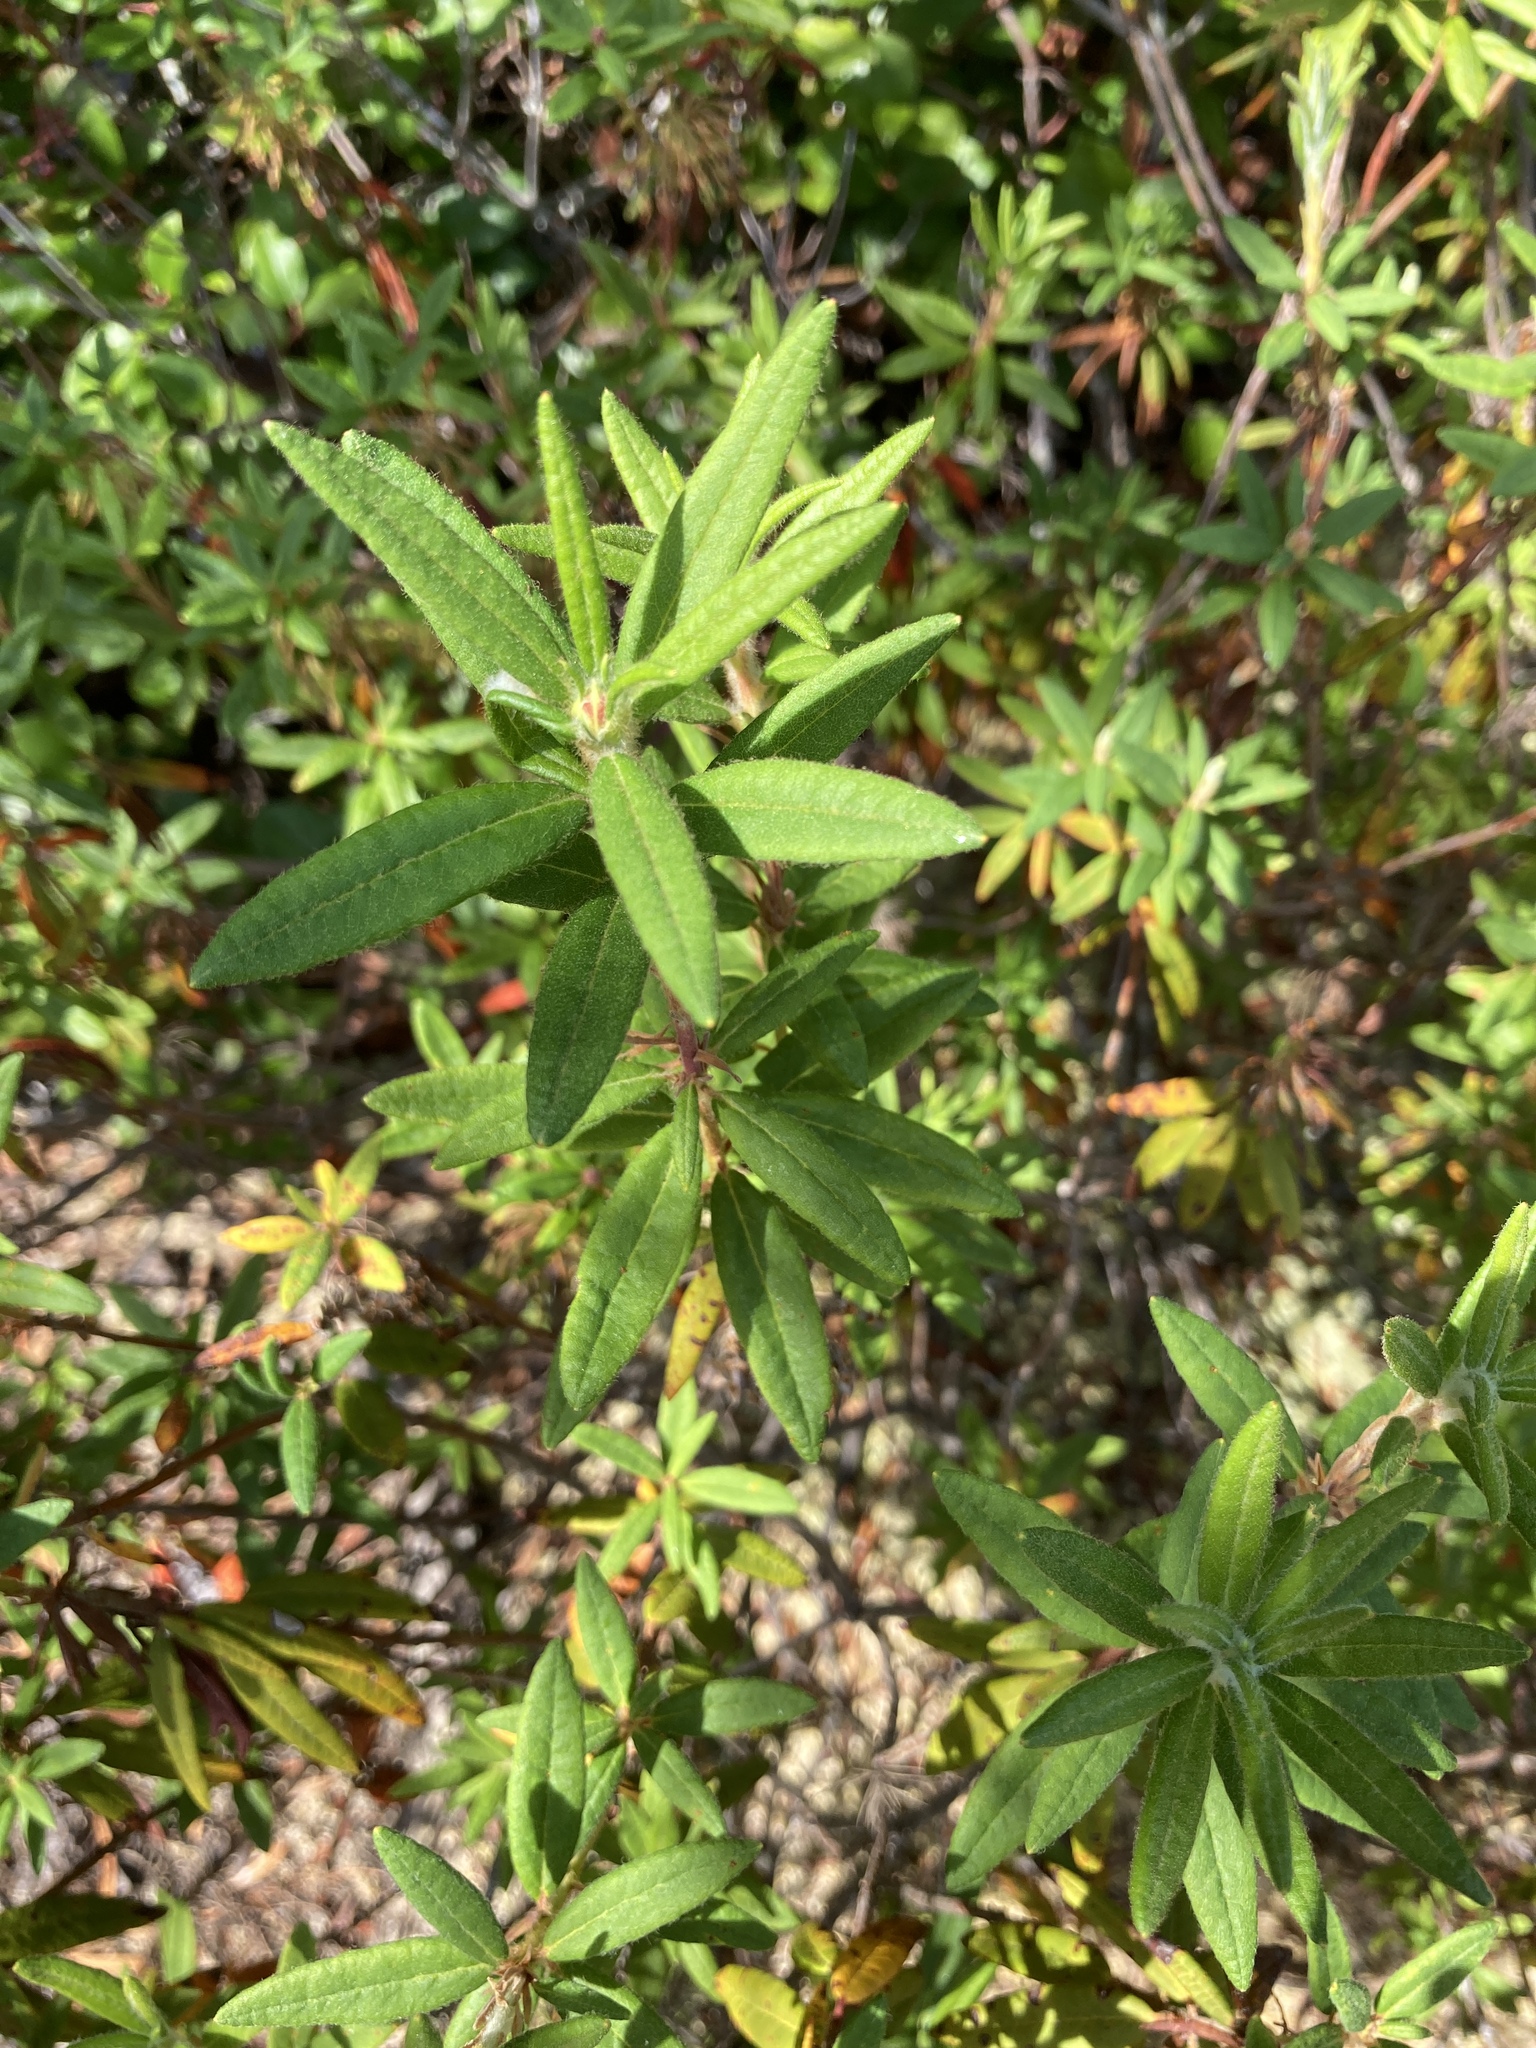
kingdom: Plantae
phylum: Tracheophyta
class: Magnoliopsida
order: Ericales
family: Ericaceae
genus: Rhododendron
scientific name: Rhododendron groenlandicum
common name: Bog labrador tea
